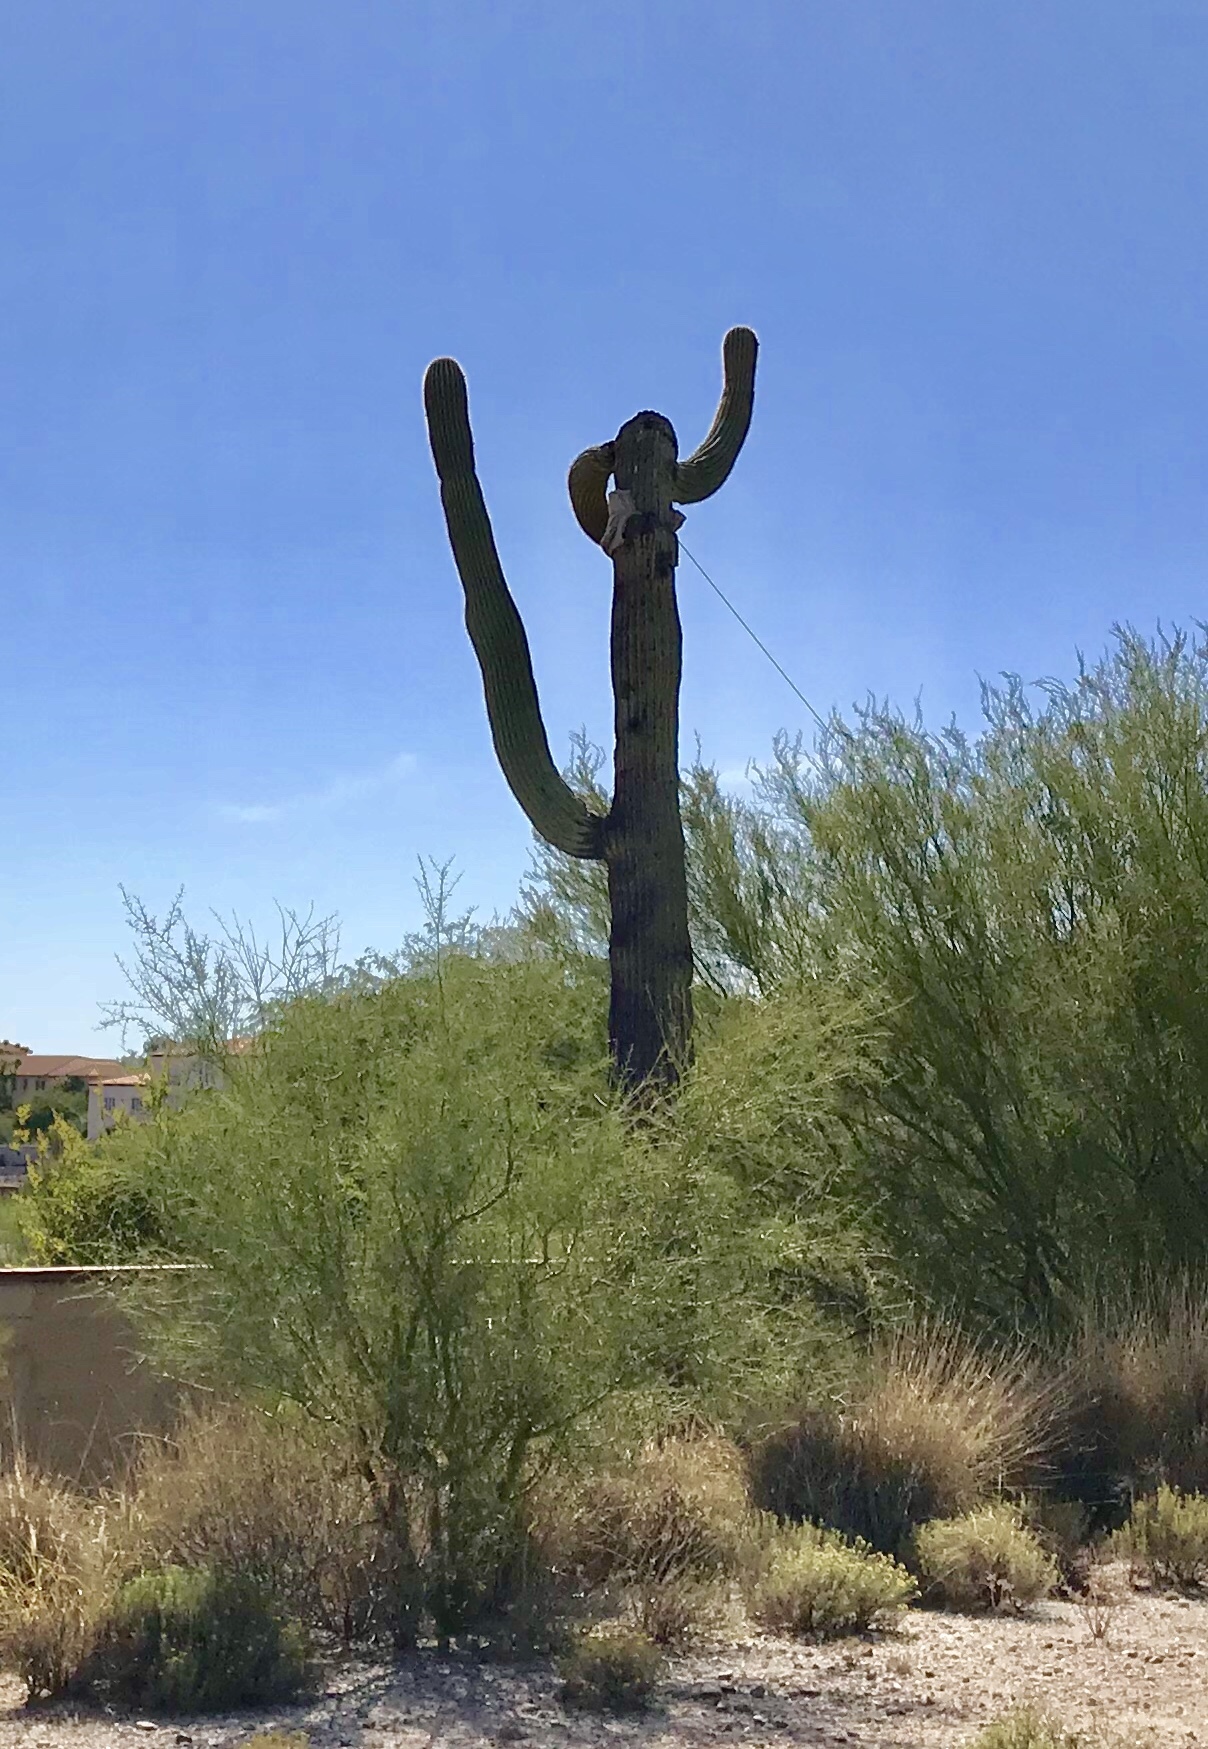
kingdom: Plantae
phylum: Tracheophyta
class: Magnoliopsida
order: Caryophyllales
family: Cactaceae
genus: Carnegiea
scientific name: Carnegiea gigantea
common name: Saguaro
